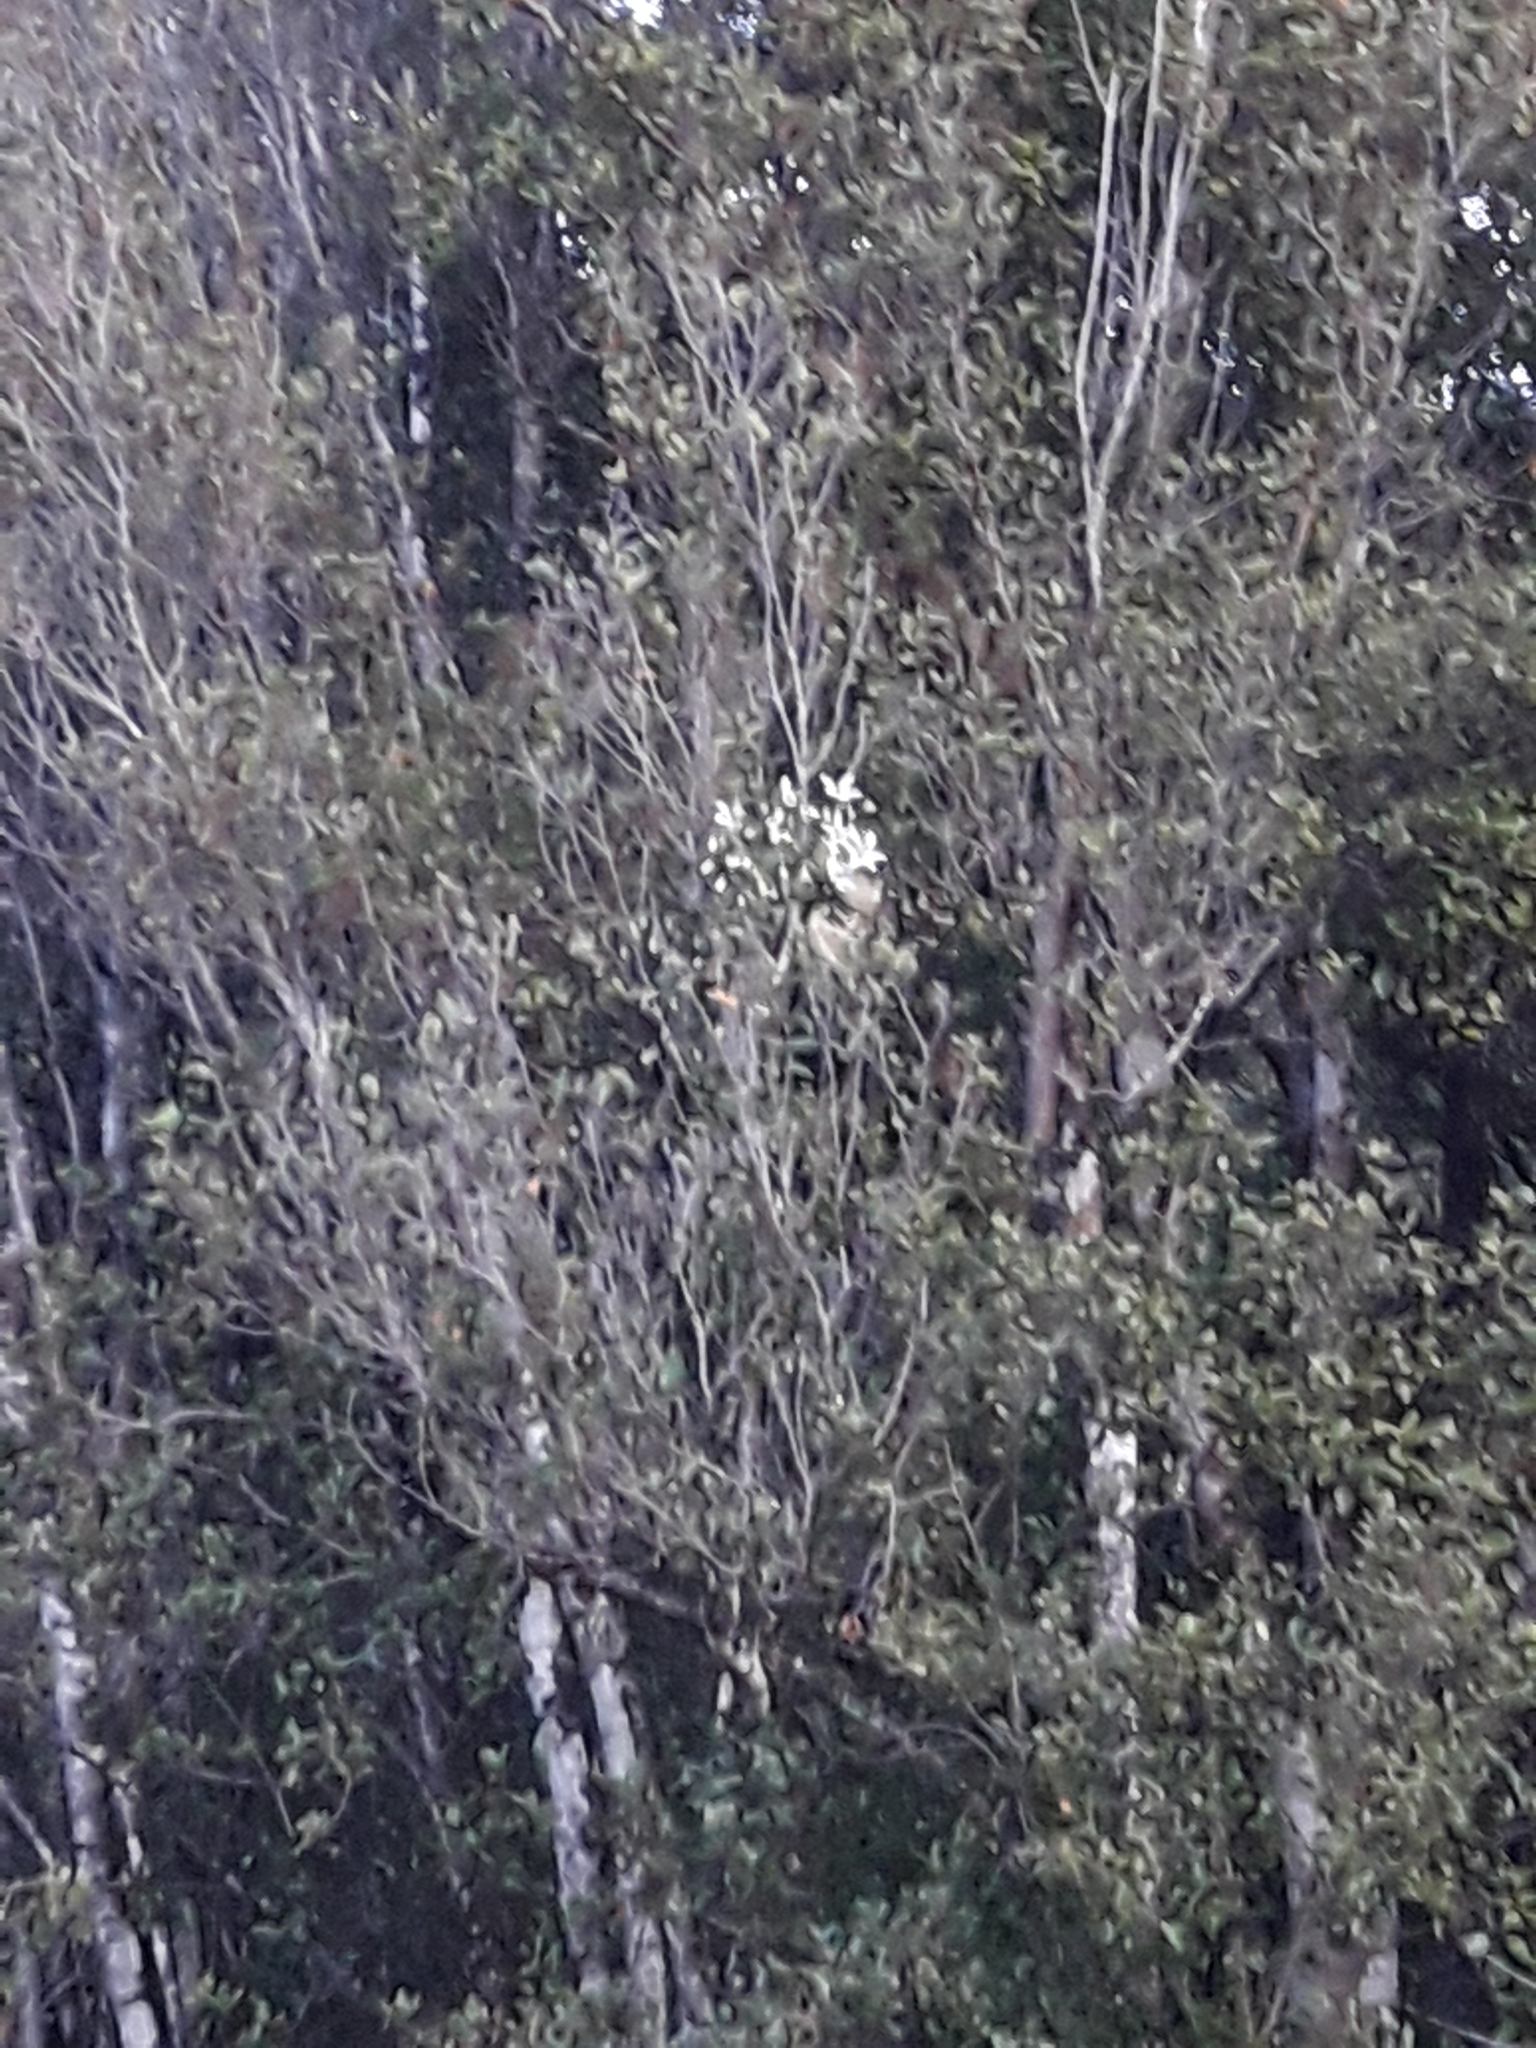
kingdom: Plantae
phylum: Tracheophyta
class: Magnoliopsida
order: Ranunculales
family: Ranunculaceae
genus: Clematis
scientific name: Clematis paniculata
